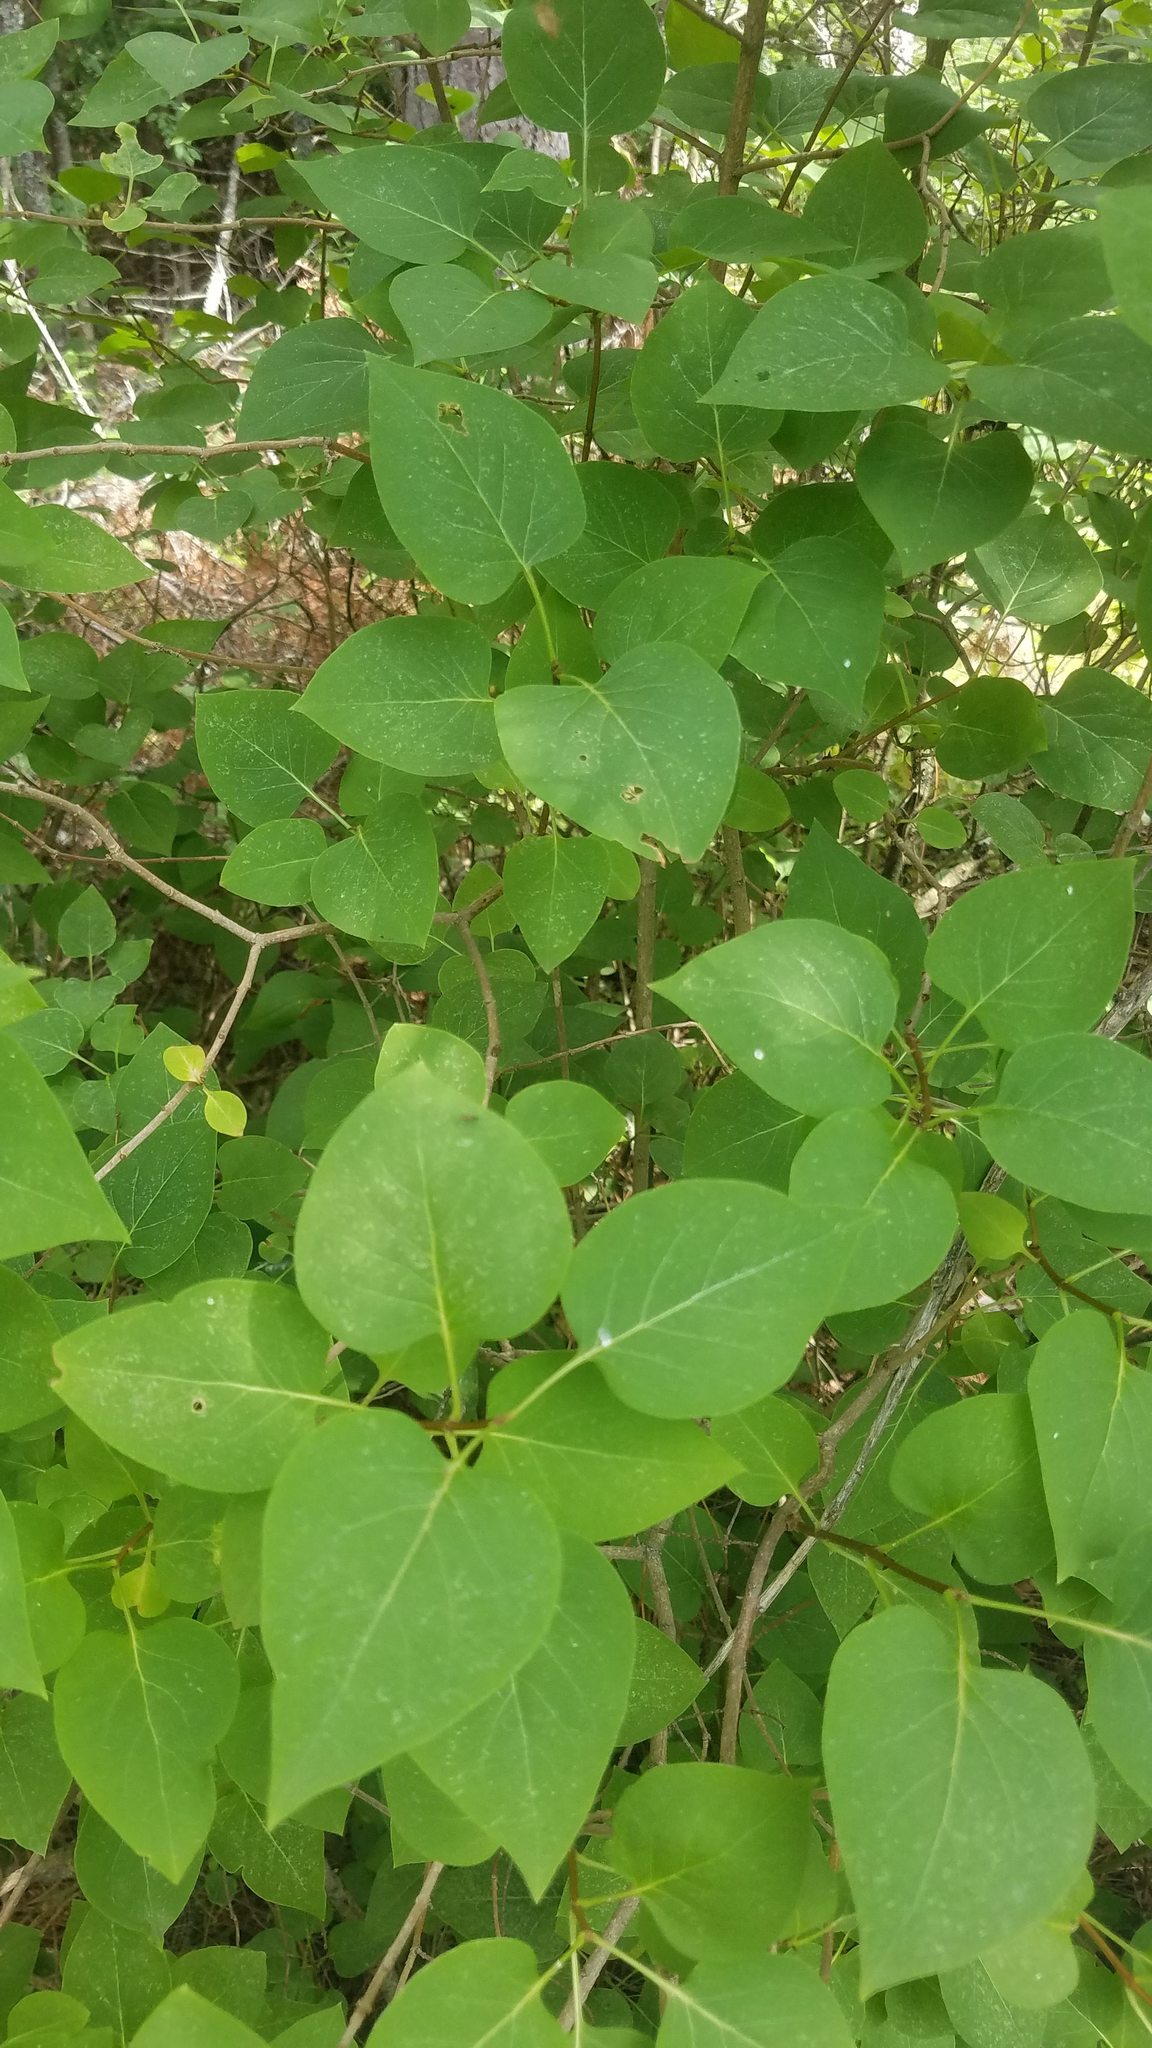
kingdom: Plantae
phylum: Tracheophyta
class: Magnoliopsida
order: Lamiales
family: Oleaceae
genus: Syringa
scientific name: Syringa vulgaris
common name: Common lilac
